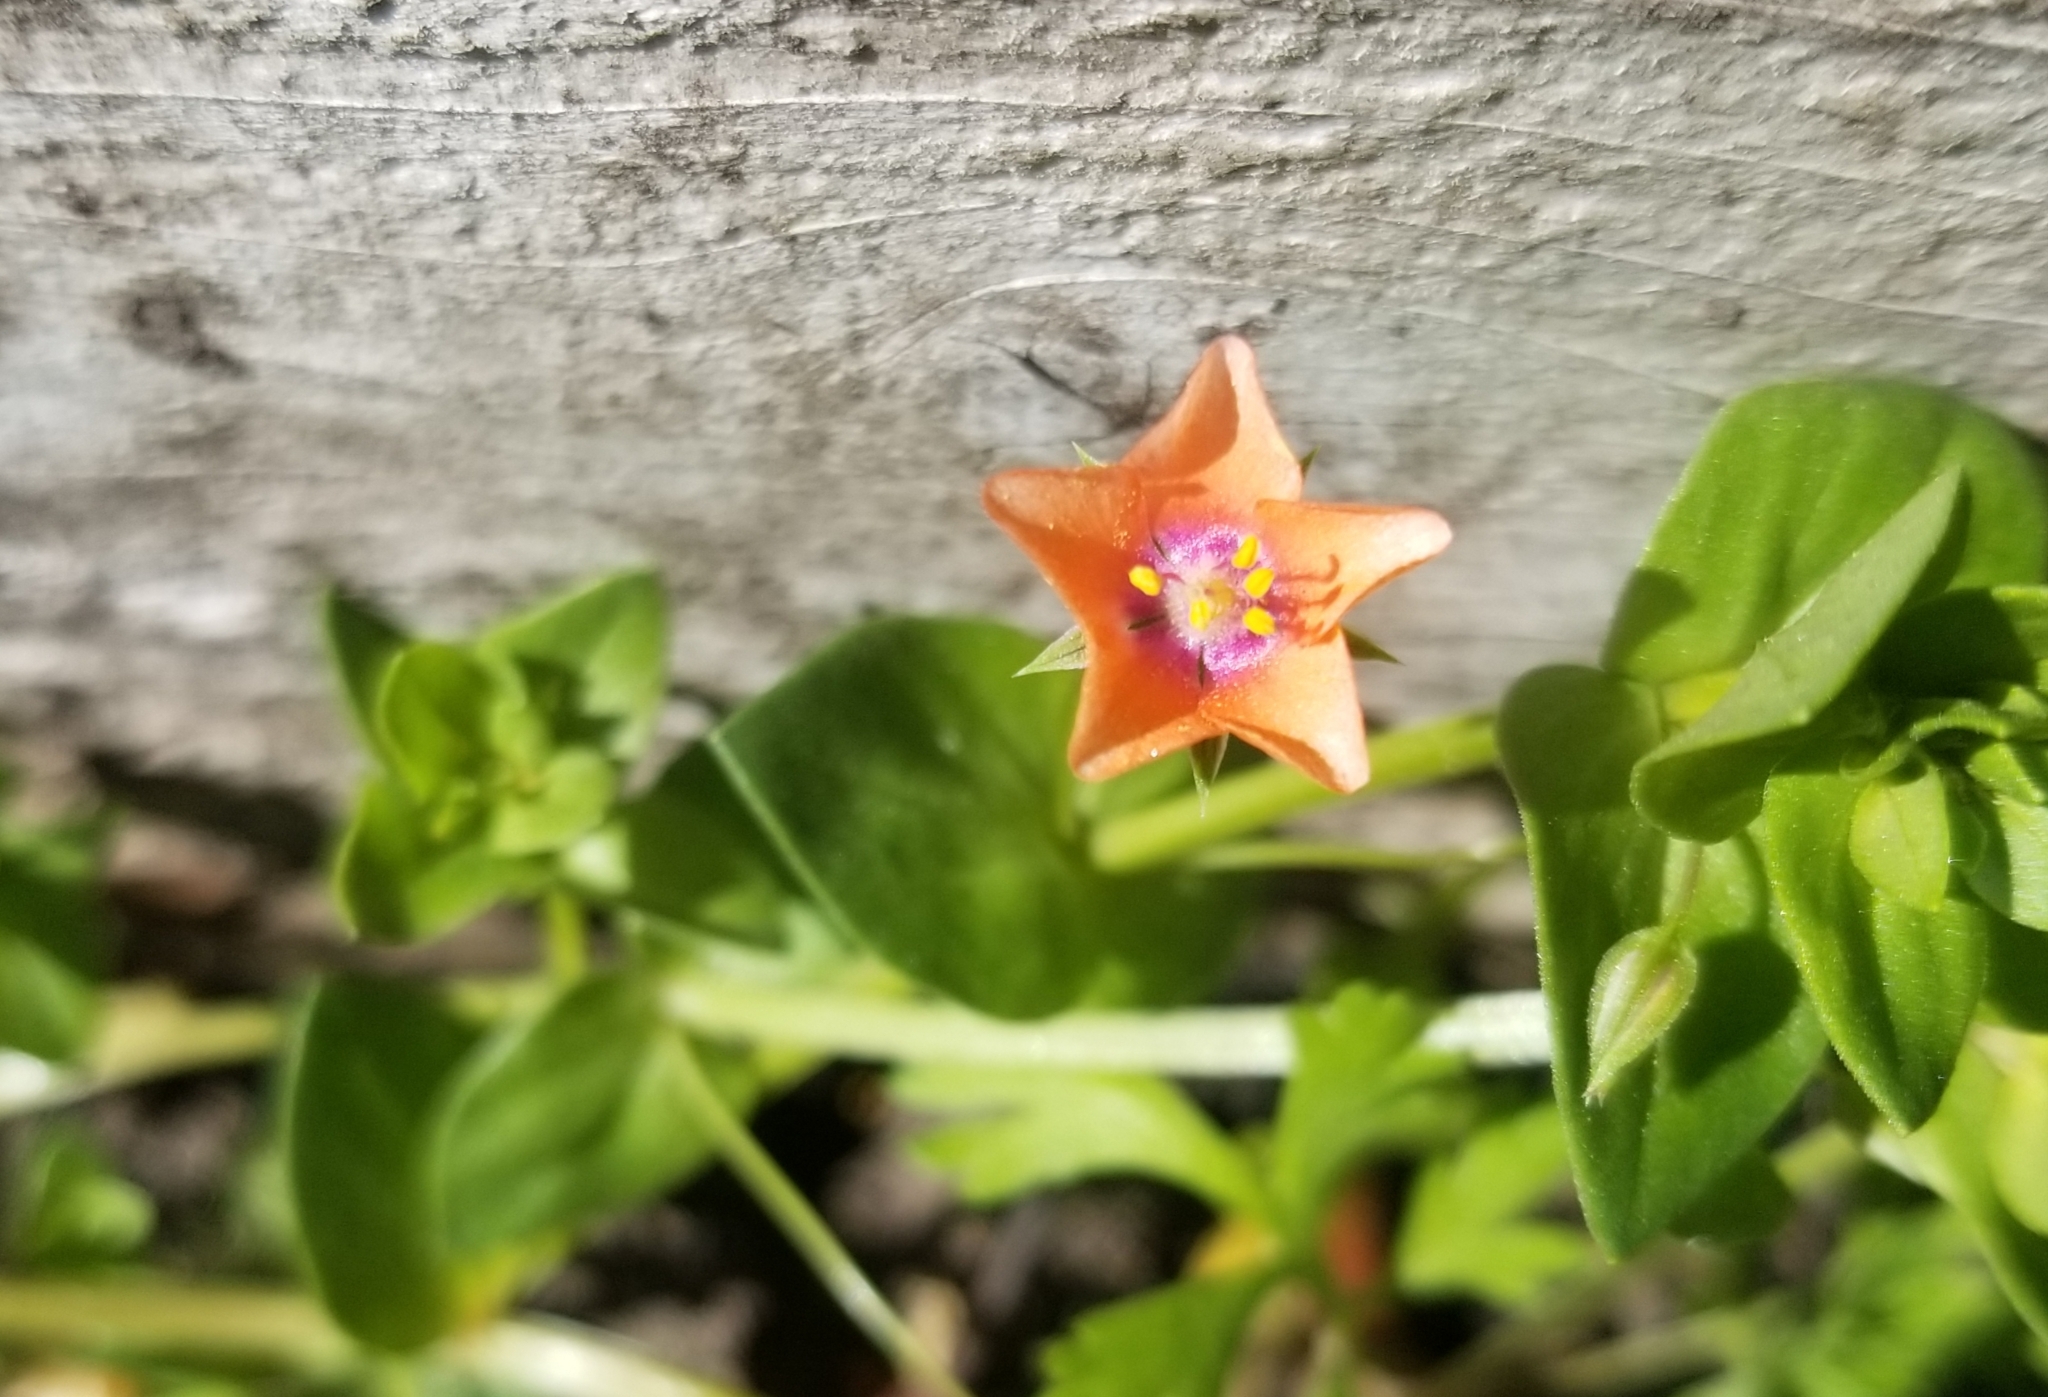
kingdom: Plantae
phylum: Tracheophyta
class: Magnoliopsida
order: Ericales
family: Primulaceae
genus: Lysimachia
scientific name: Lysimachia arvensis
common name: Scarlet pimpernel
